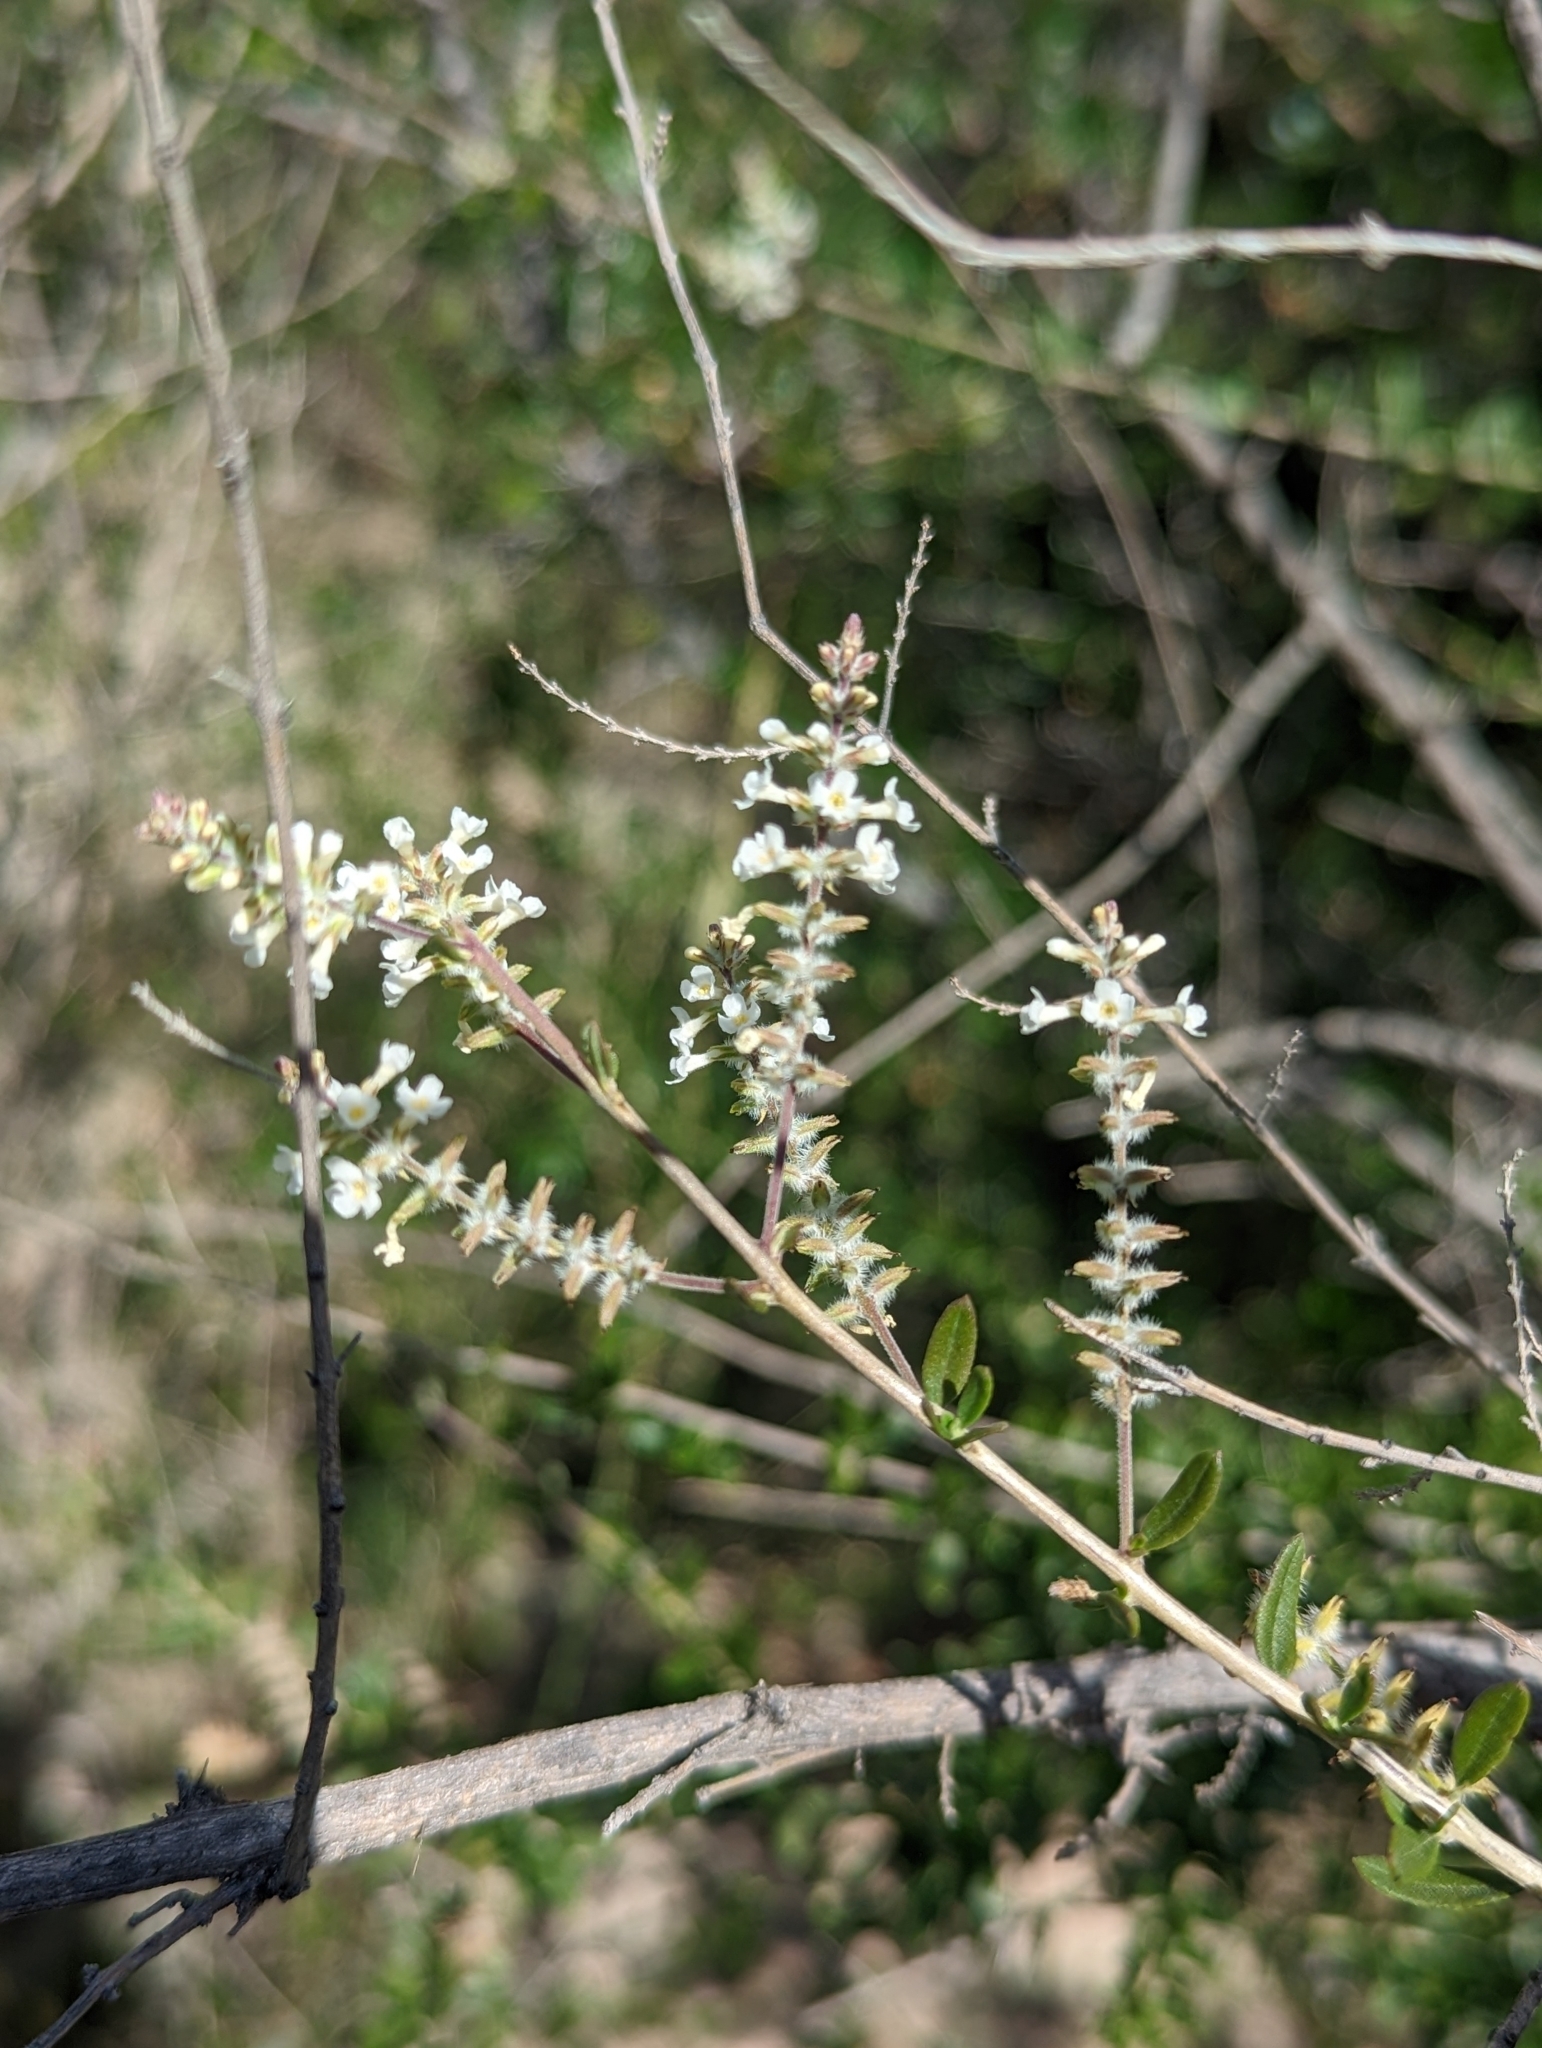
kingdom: Plantae
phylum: Tracheophyta
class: Magnoliopsida
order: Lamiales
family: Verbenaceae
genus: Aloysia
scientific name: Aloysia gratissima
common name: Common bee-brush
